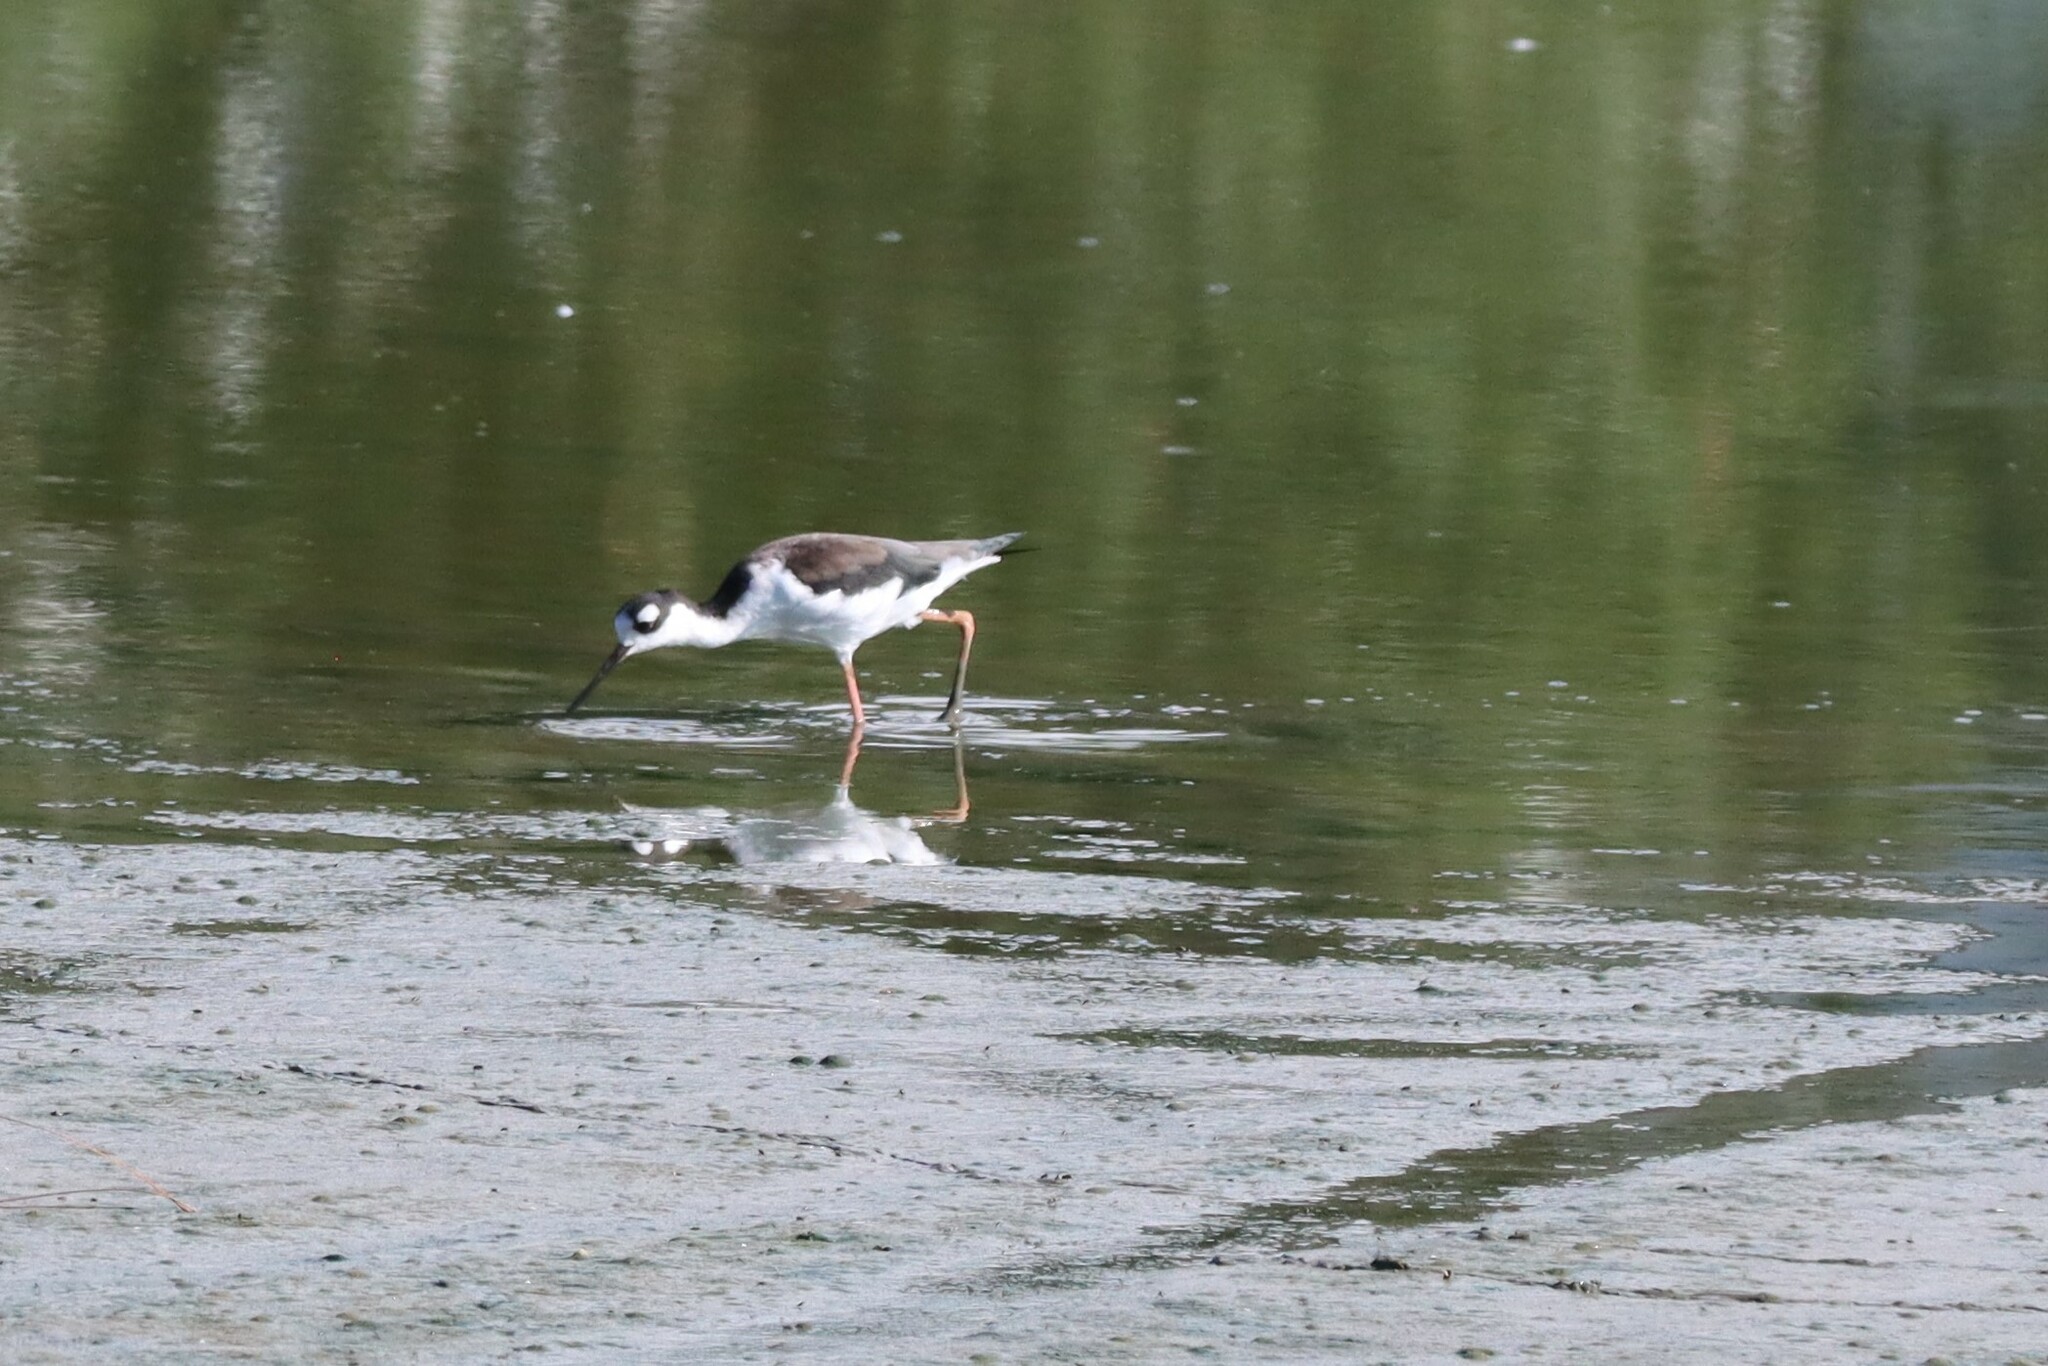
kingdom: Animalia
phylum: Chordata
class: Aves
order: Charadriiformes
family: Recurvirostridae
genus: Himantopus
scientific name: Himantopus mexicanus
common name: Black-necked stilt
